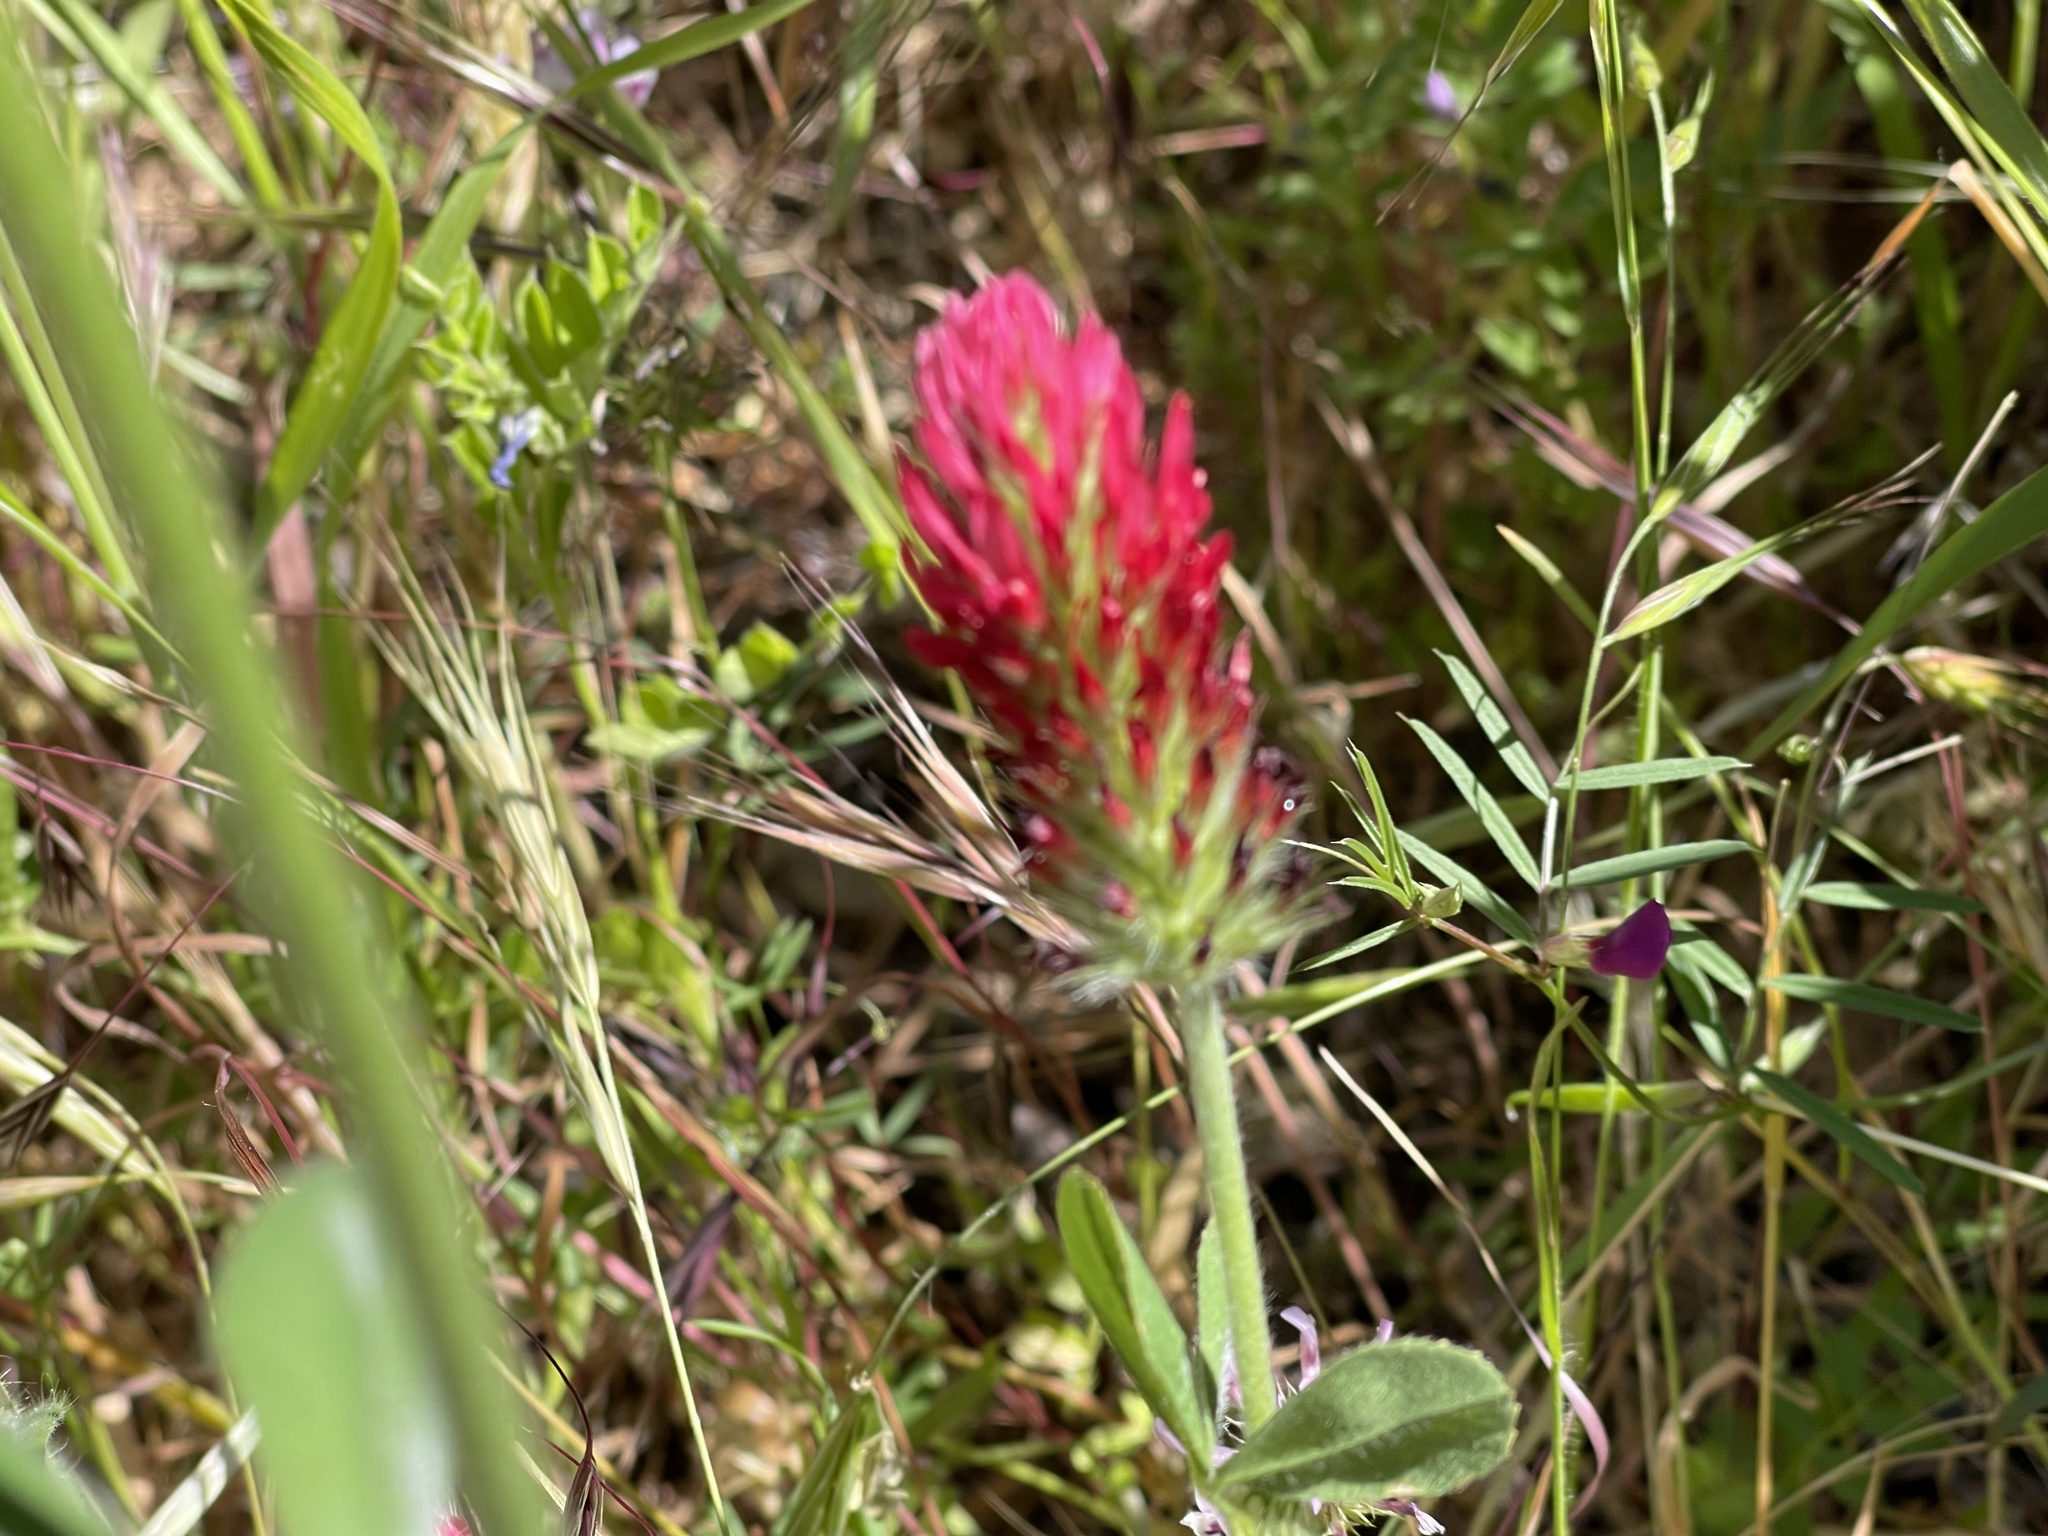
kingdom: Plantae
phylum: Tracheophyta
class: Magnoliopsida
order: Fabales
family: Fabaceae
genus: Trifolium
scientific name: Trifolium incarnatum
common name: Crimson clover
